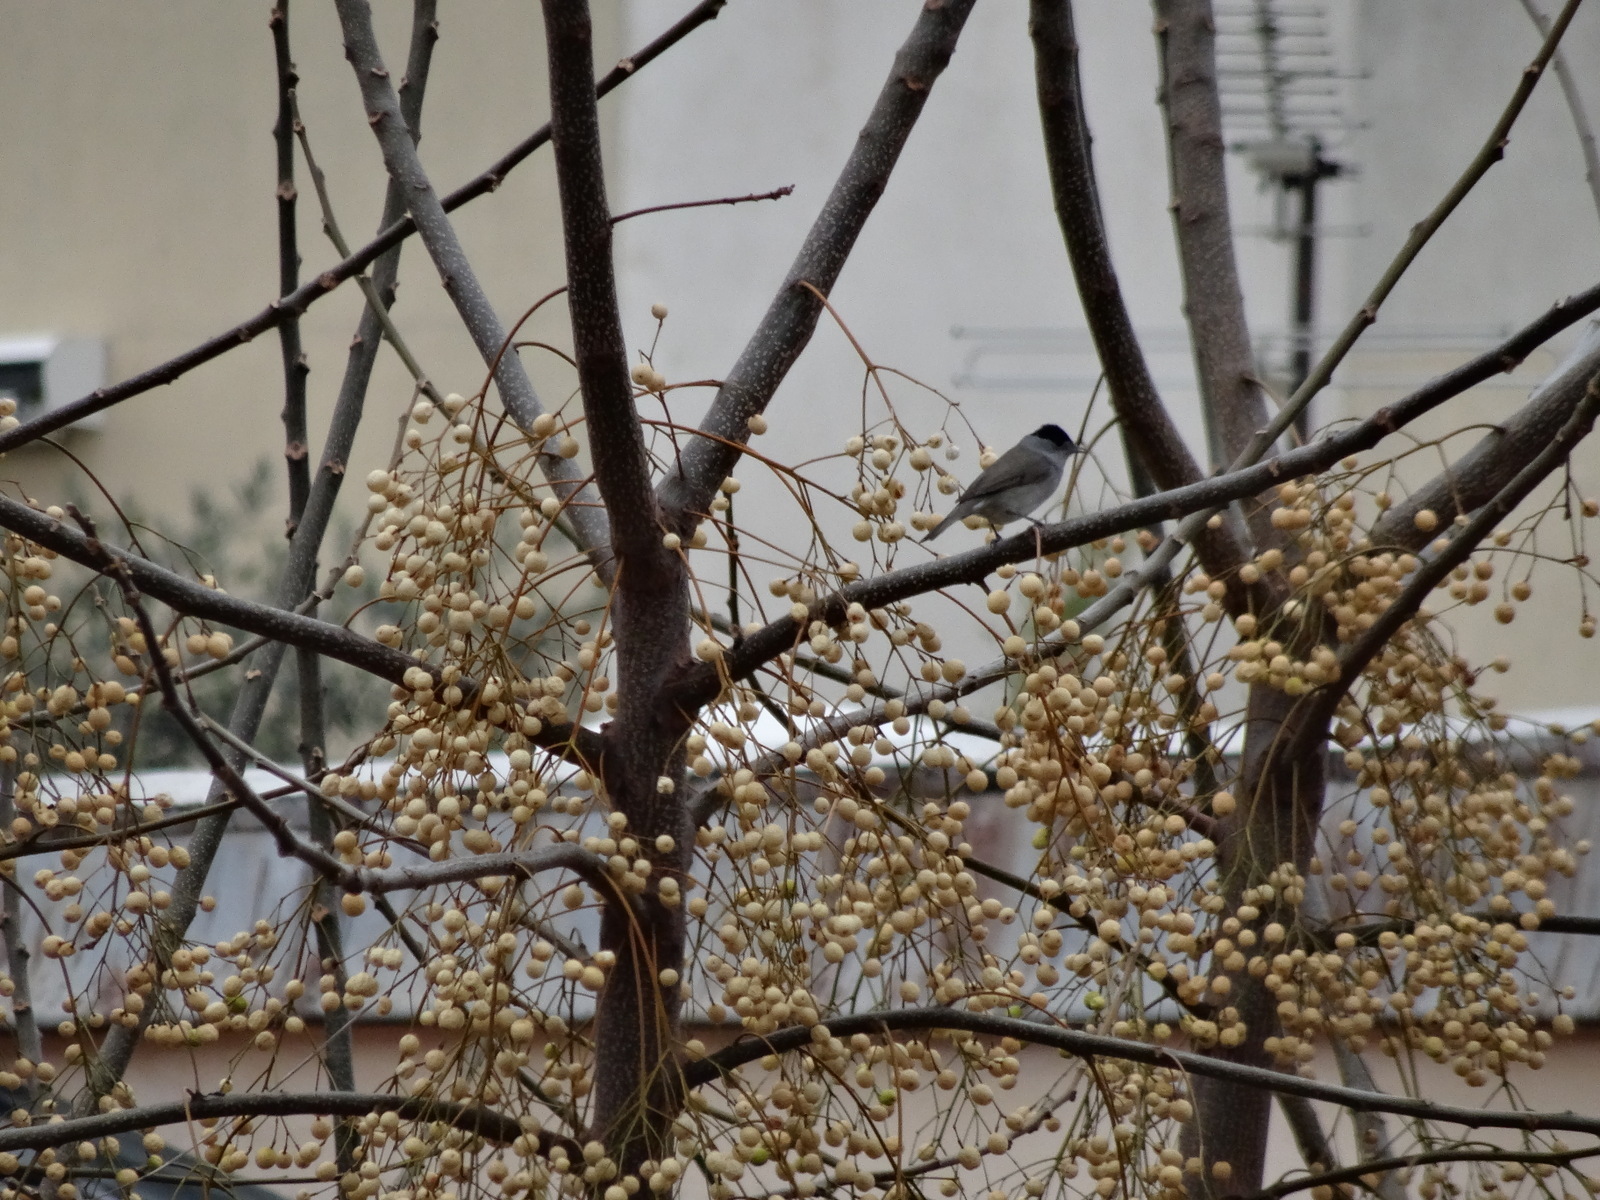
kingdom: Animalia
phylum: Chordata
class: Aves
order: Passeriformes
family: Sylviidae
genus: Sylvia
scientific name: Sylvia atricapilla
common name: Eurasian blackcap
